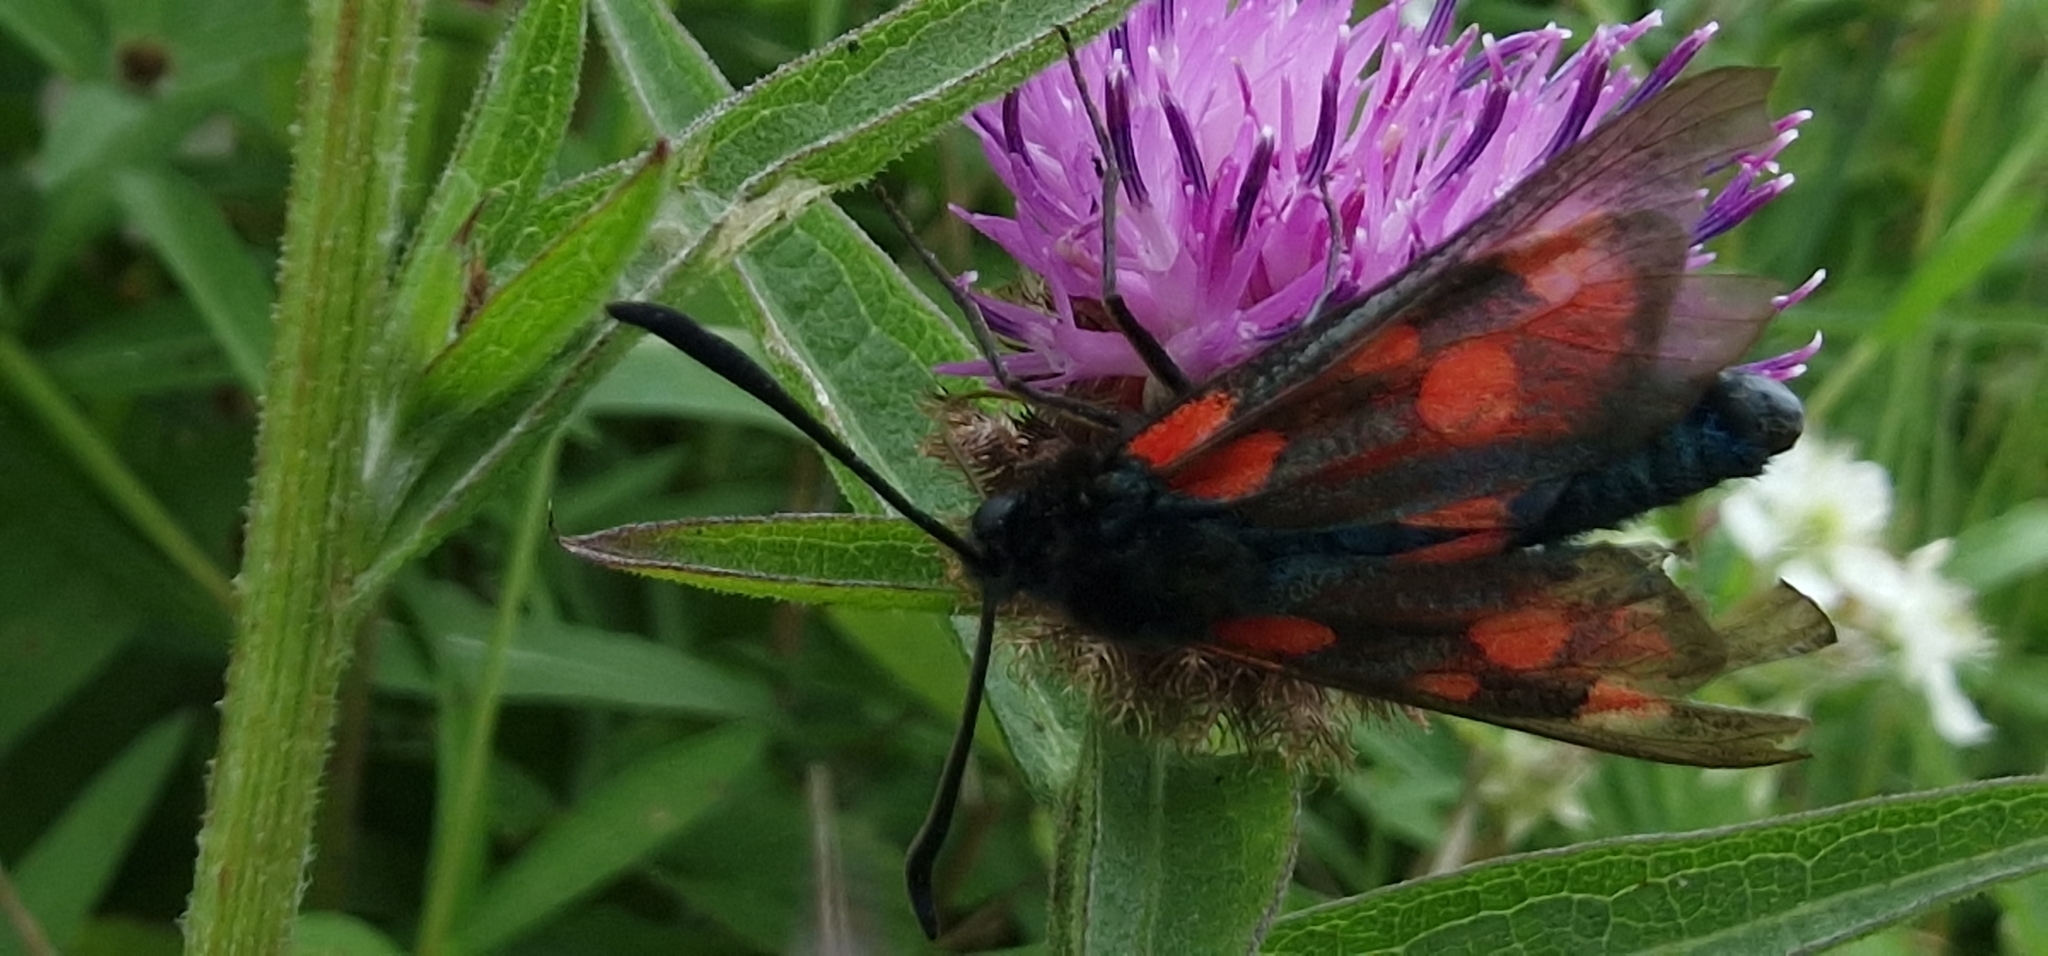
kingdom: Animalia
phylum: Arthropoda
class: Insecta
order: Lepidoptera
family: Zygaenidae
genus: Zygaena
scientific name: Zygaena
